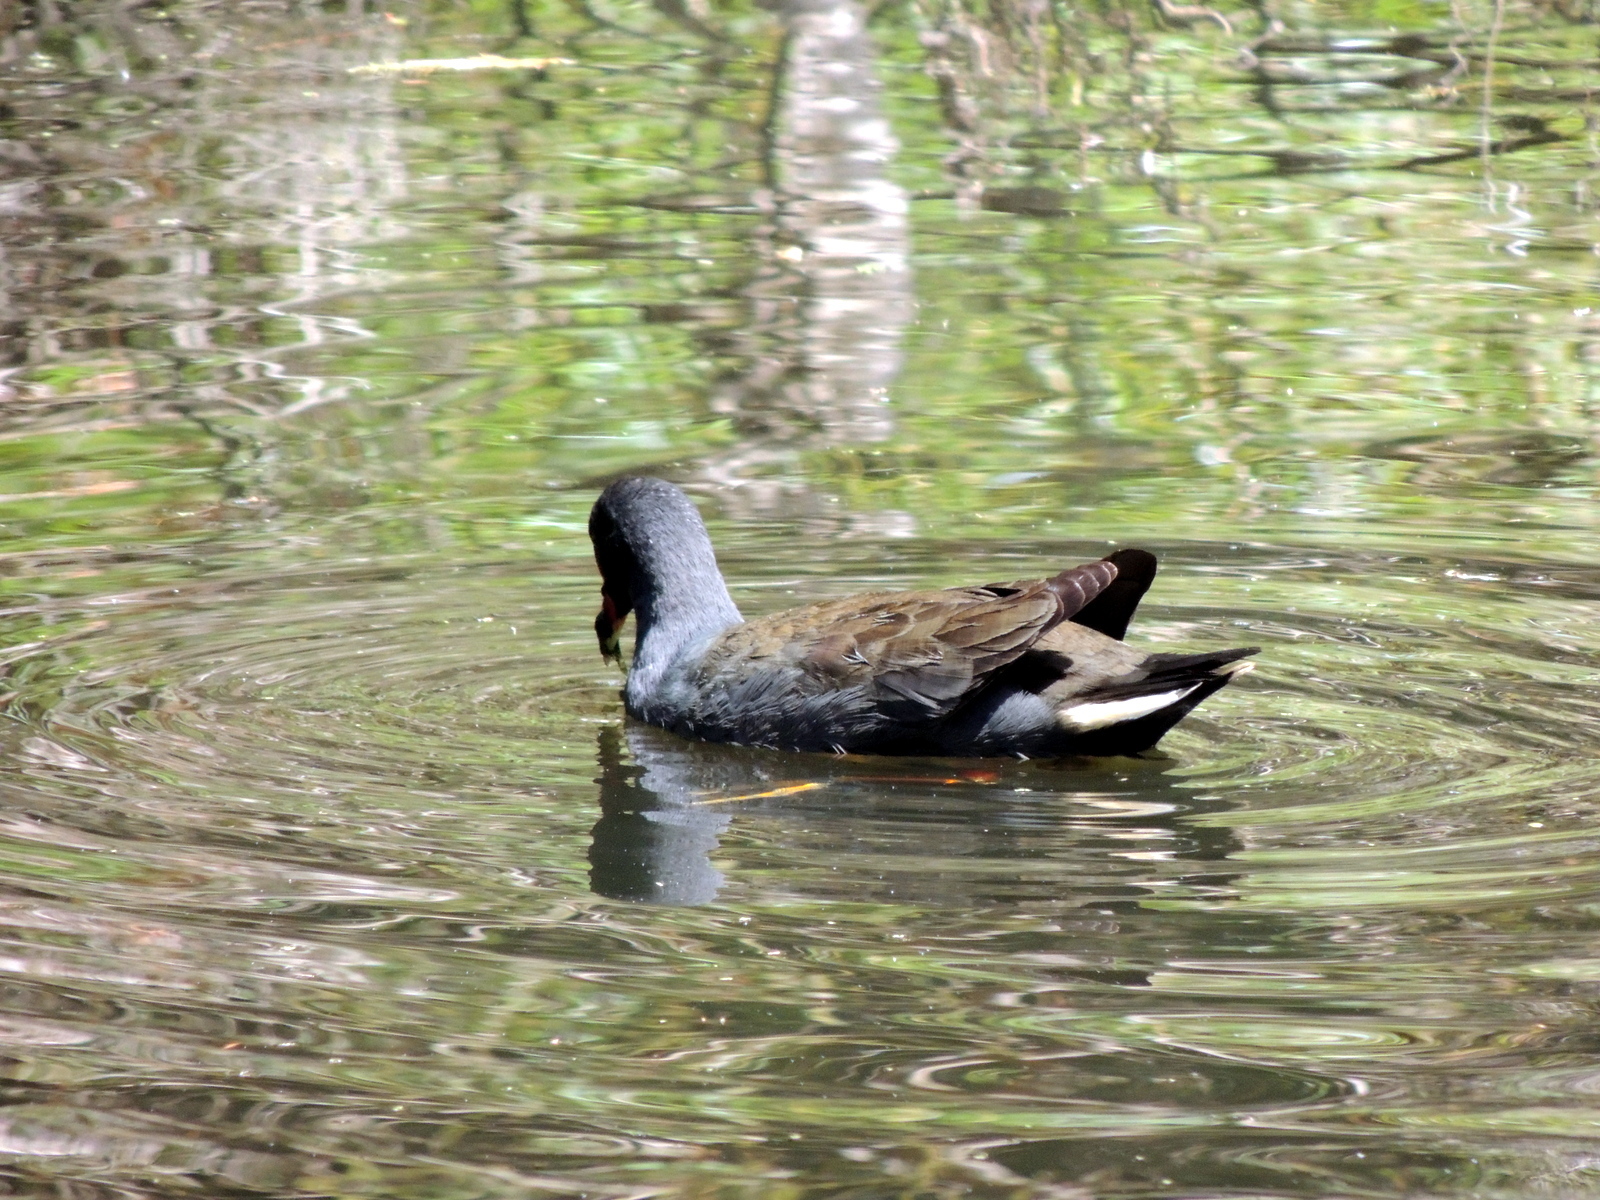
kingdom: Animalia
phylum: Chordata
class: Aves
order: Gruiformes
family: Rallidae
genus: Gallinula
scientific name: Gallinula tenebrosa
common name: Dusky moorhen
